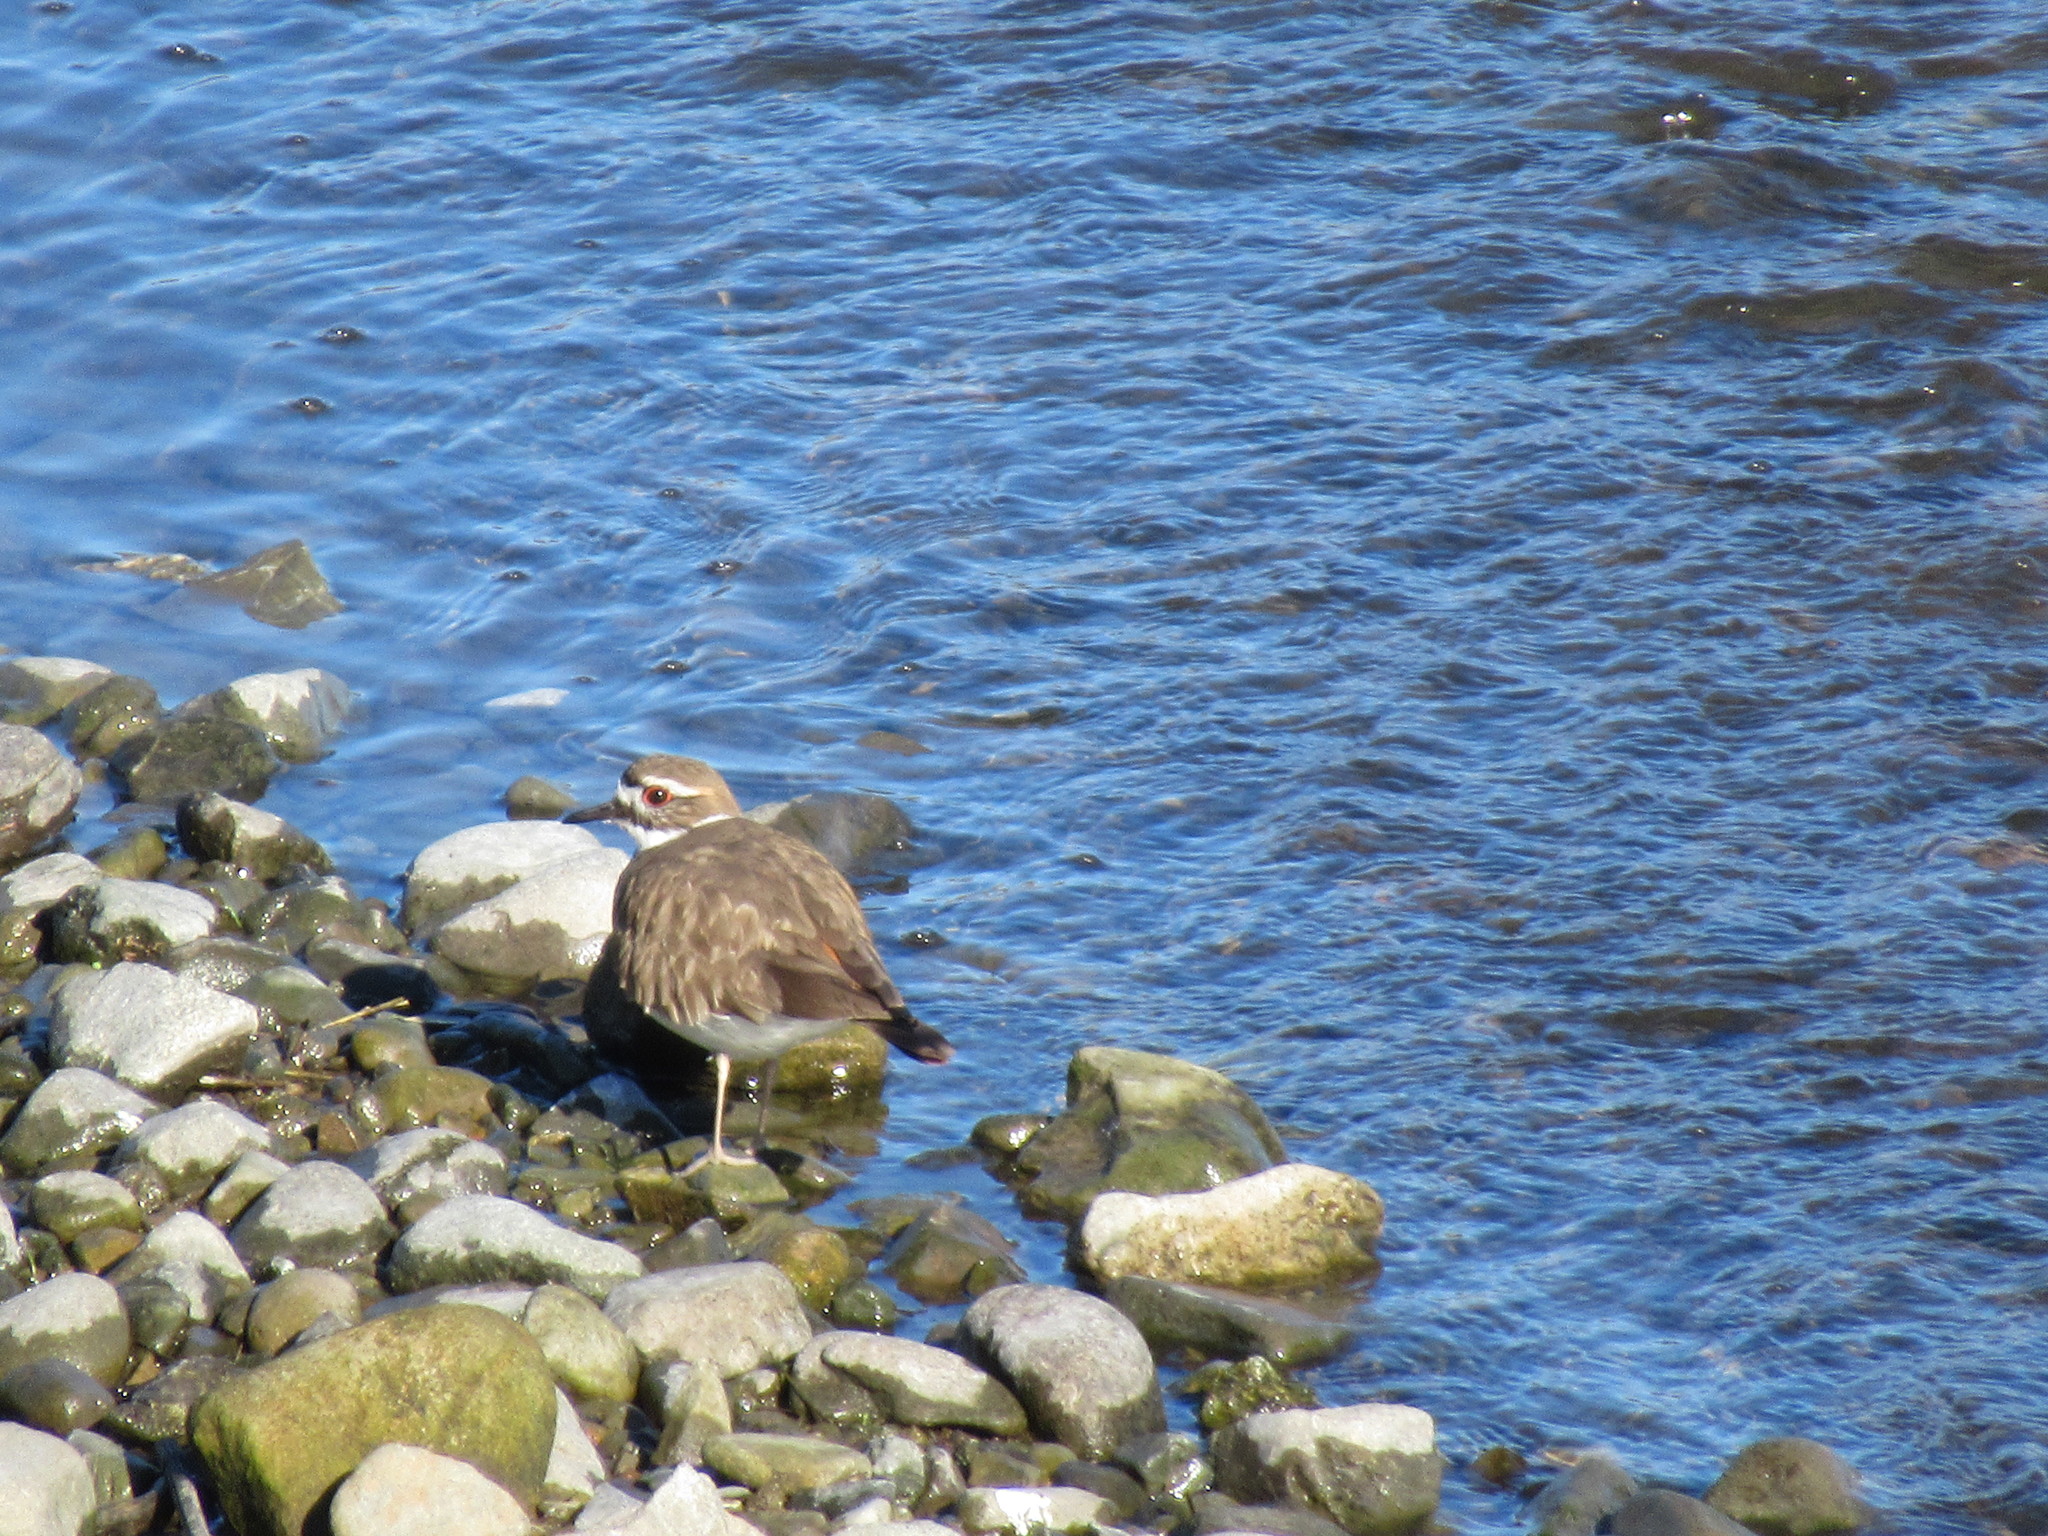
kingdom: Animalia
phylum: Chordata
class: Aves
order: Charadriiformes
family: Charadriidae
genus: Charadrius
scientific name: Charadrius vociferus
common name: Killdeer
